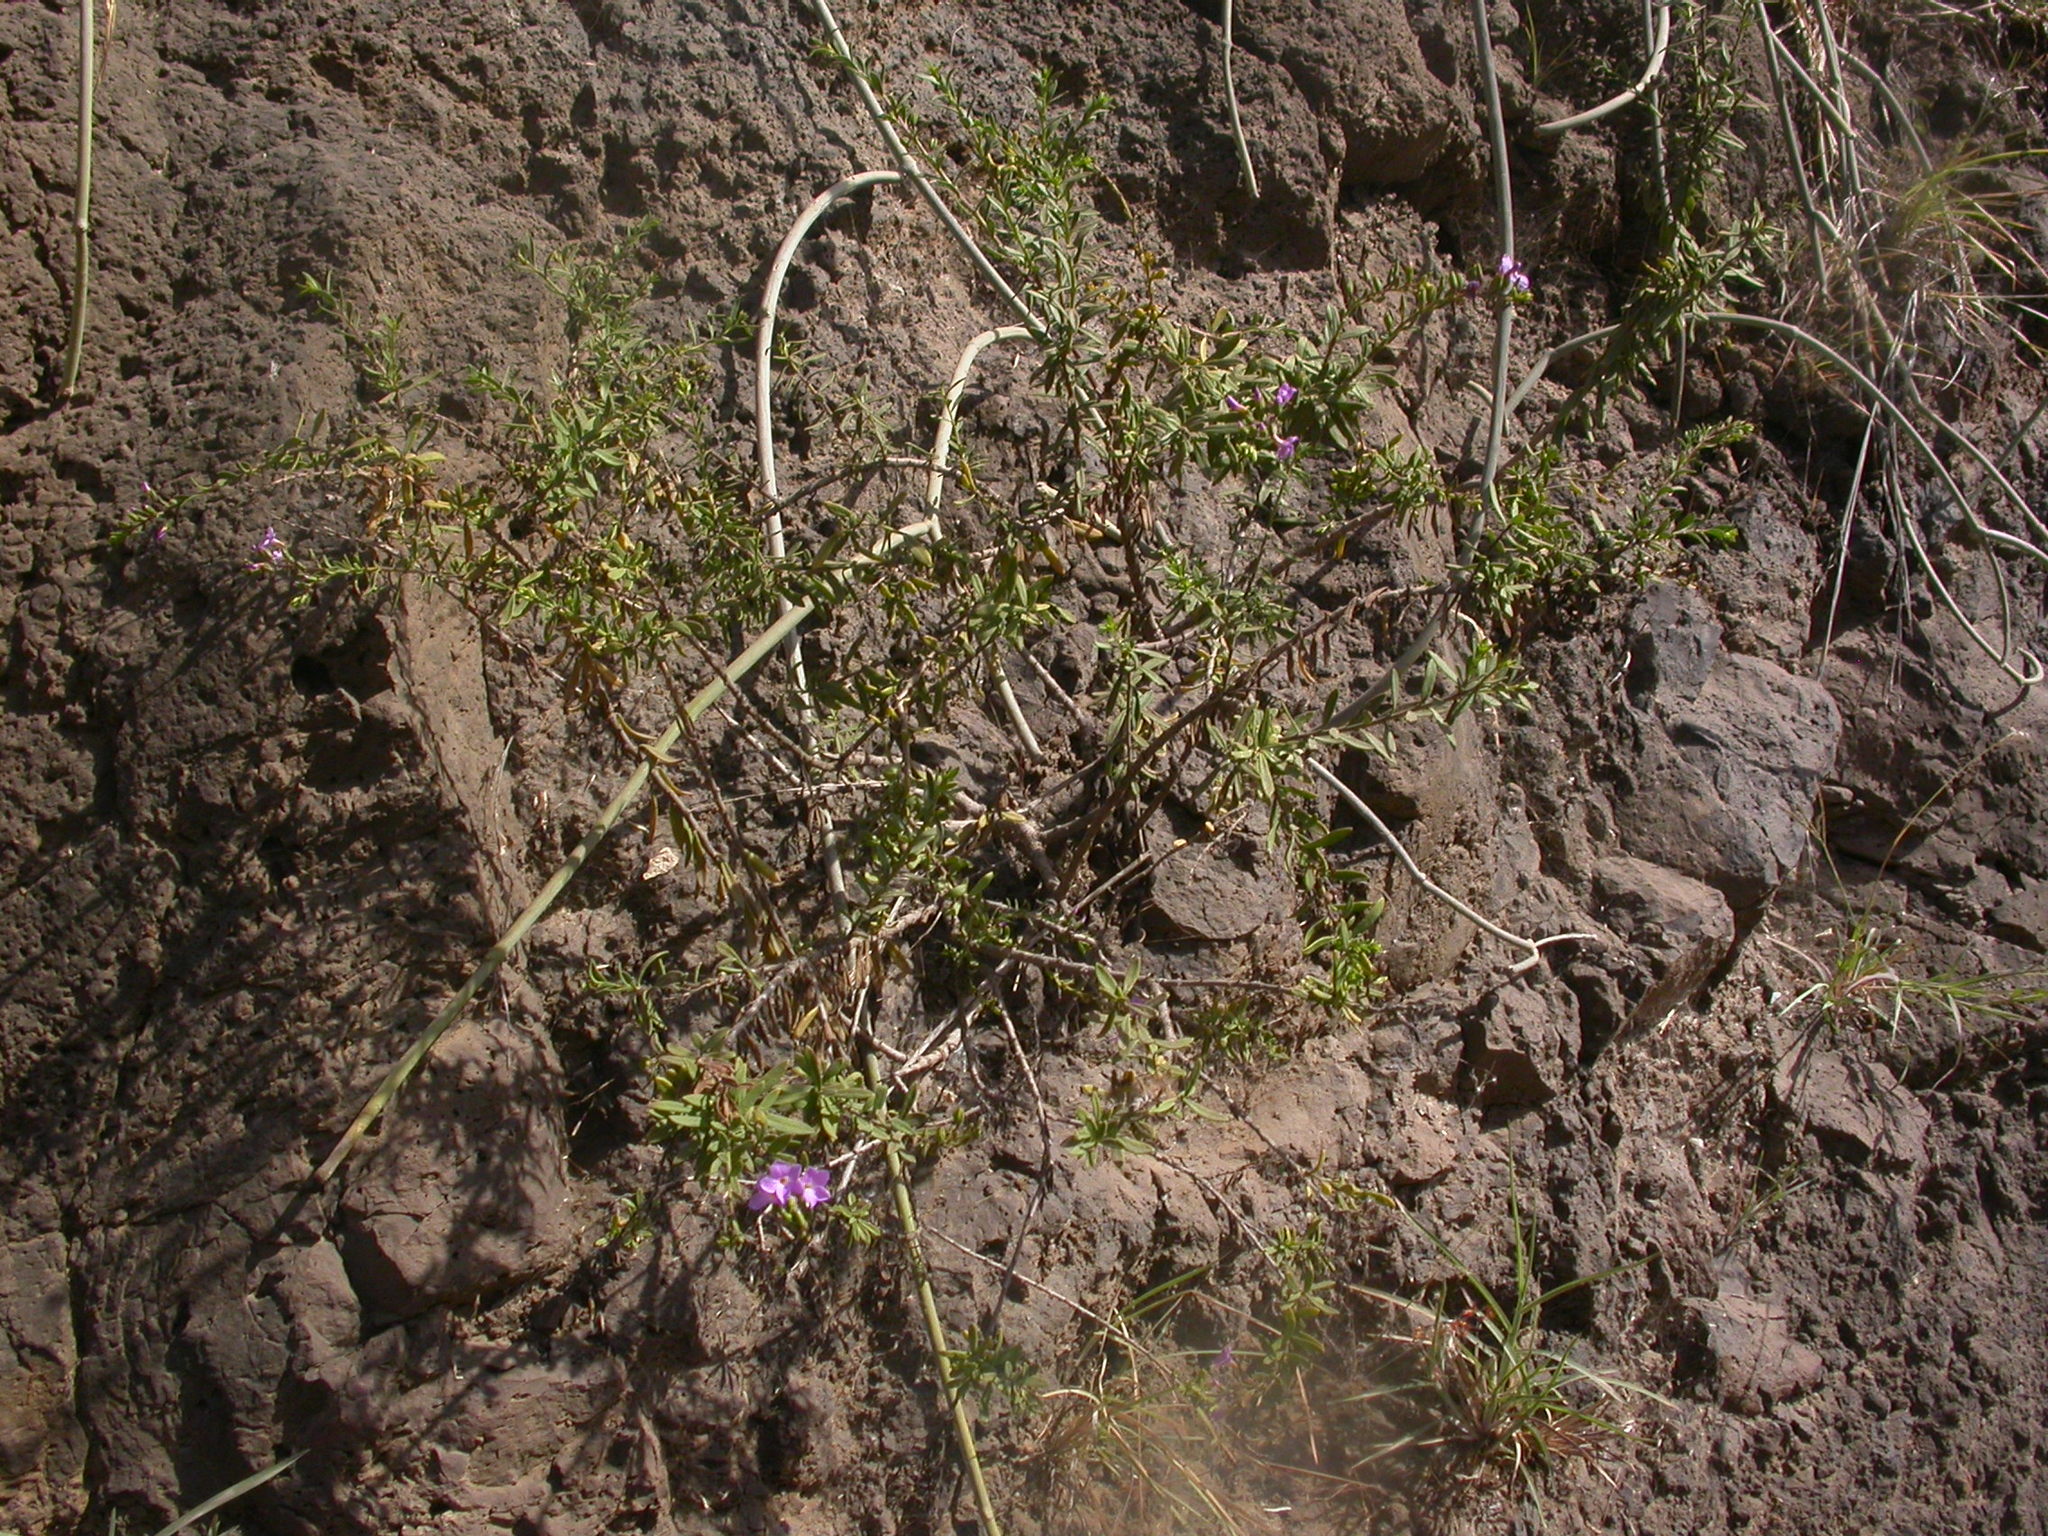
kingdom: Plantae
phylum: Tracheophyta
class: Magnoliopsida
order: Lamiales
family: Plantaginaceae
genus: Campylanthus
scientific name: Campylanthus glaber
